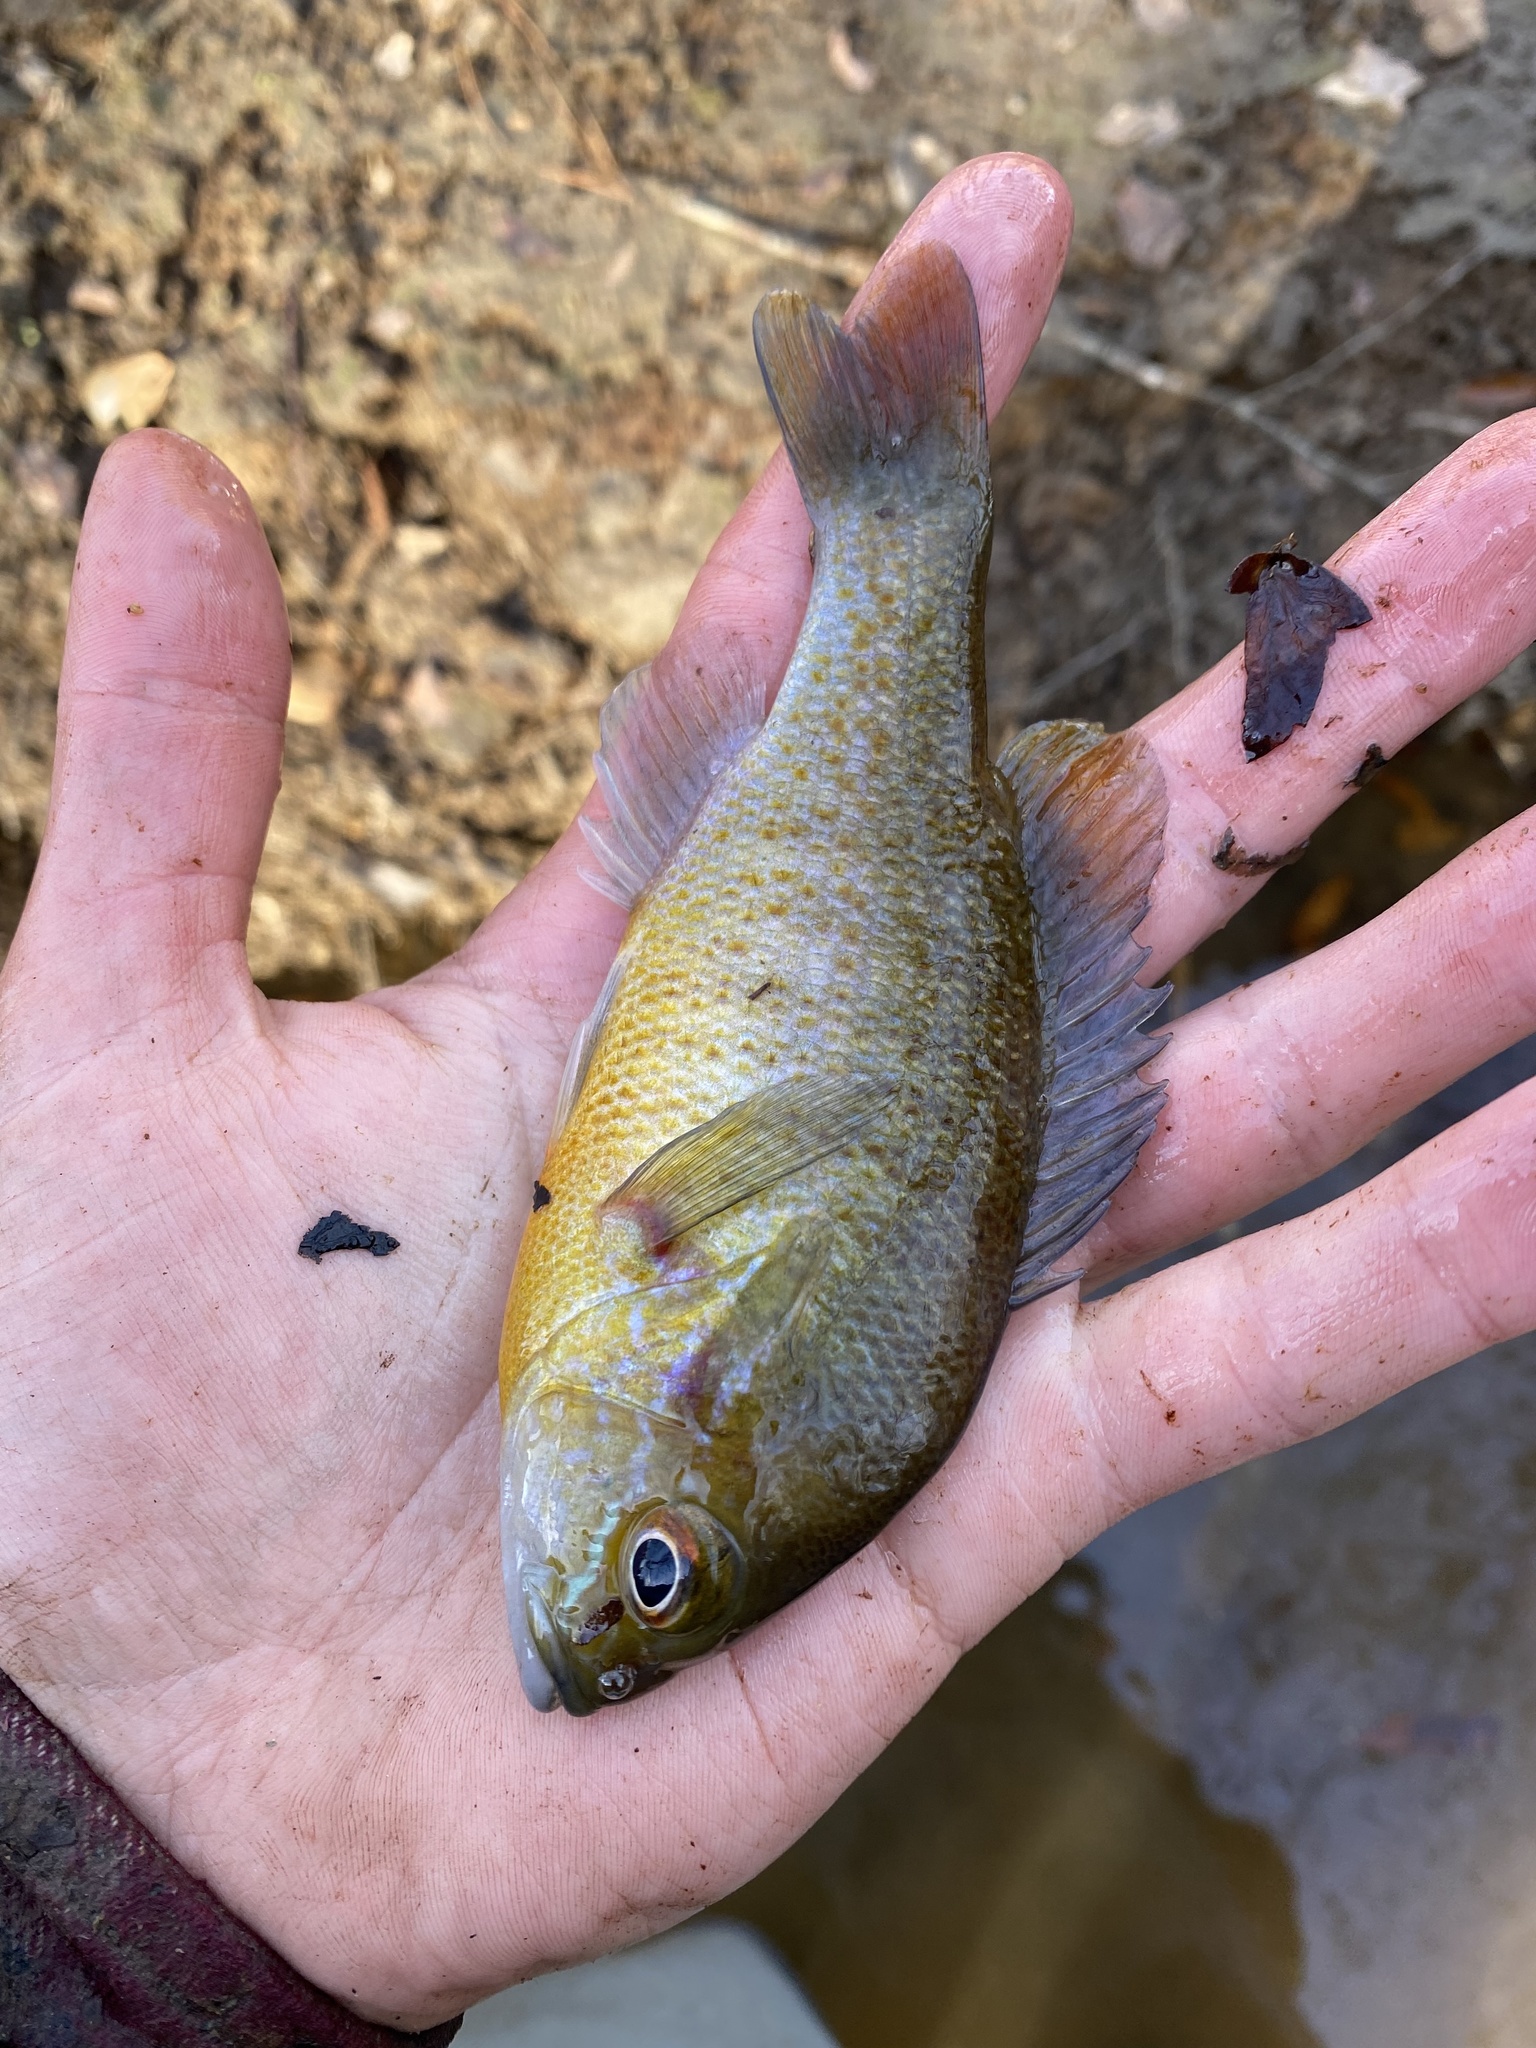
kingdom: Animalia
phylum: Chordata
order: Perciformes
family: Centrarchidae
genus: Lepomis
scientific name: Lepomis auritus
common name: Redbreast sunfish
